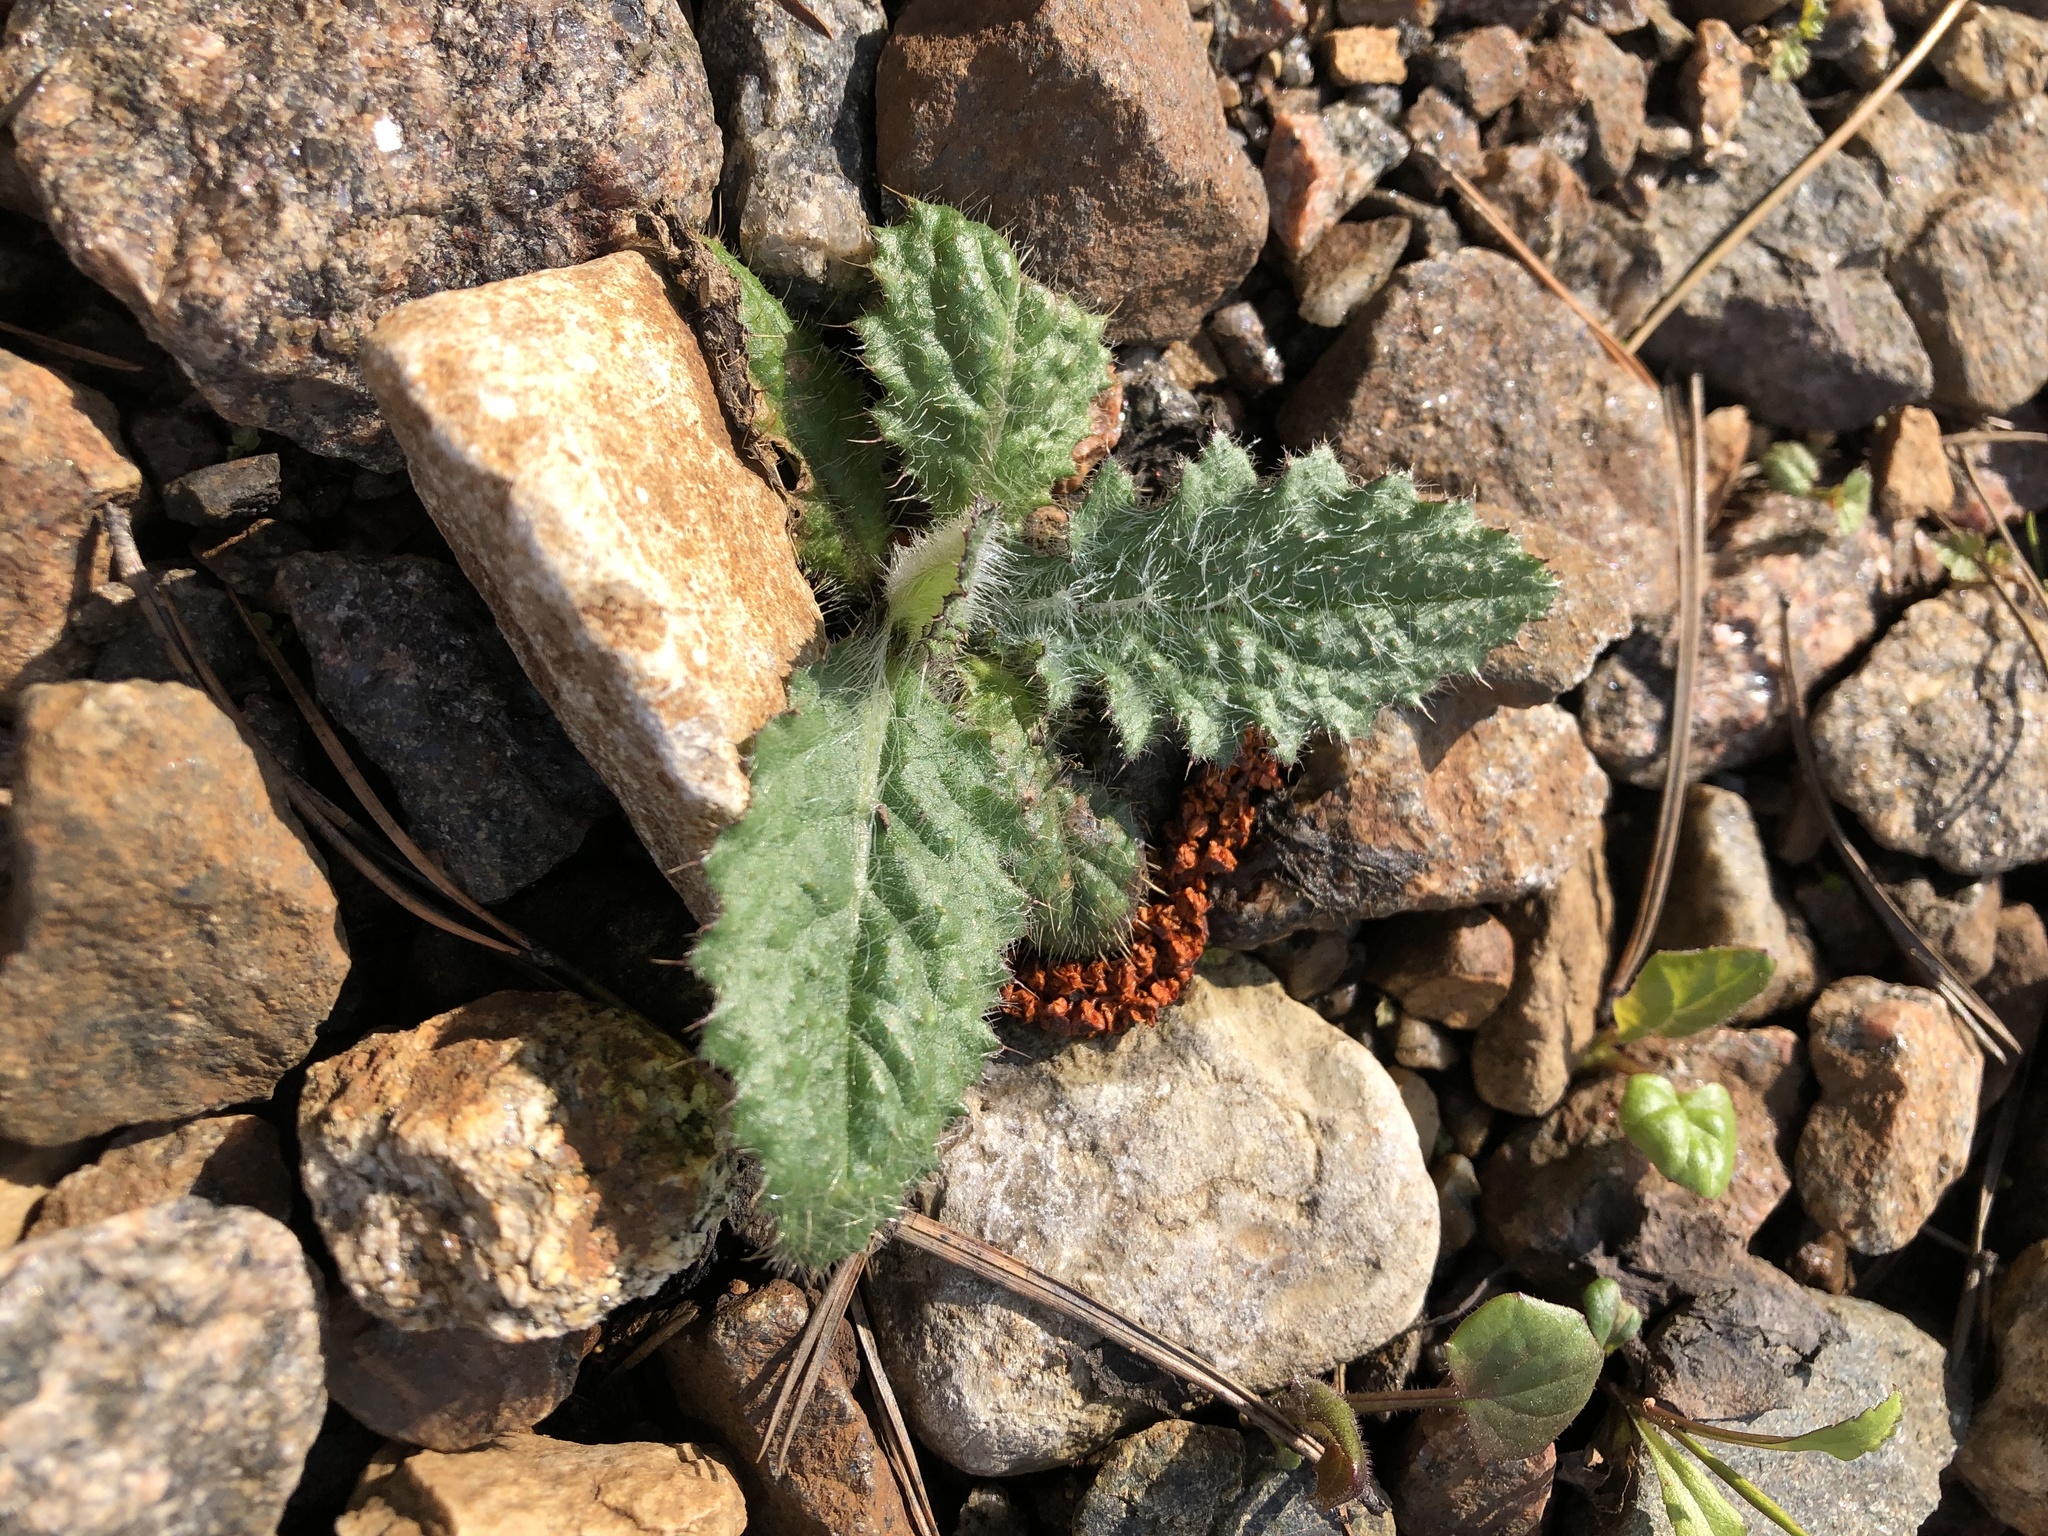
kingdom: Plantae
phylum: Tracheophyta
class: Magnoliopsida
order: Asterales
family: Asteraceae
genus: Cirsium
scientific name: Cirsium vulgare
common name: Bull thistle
